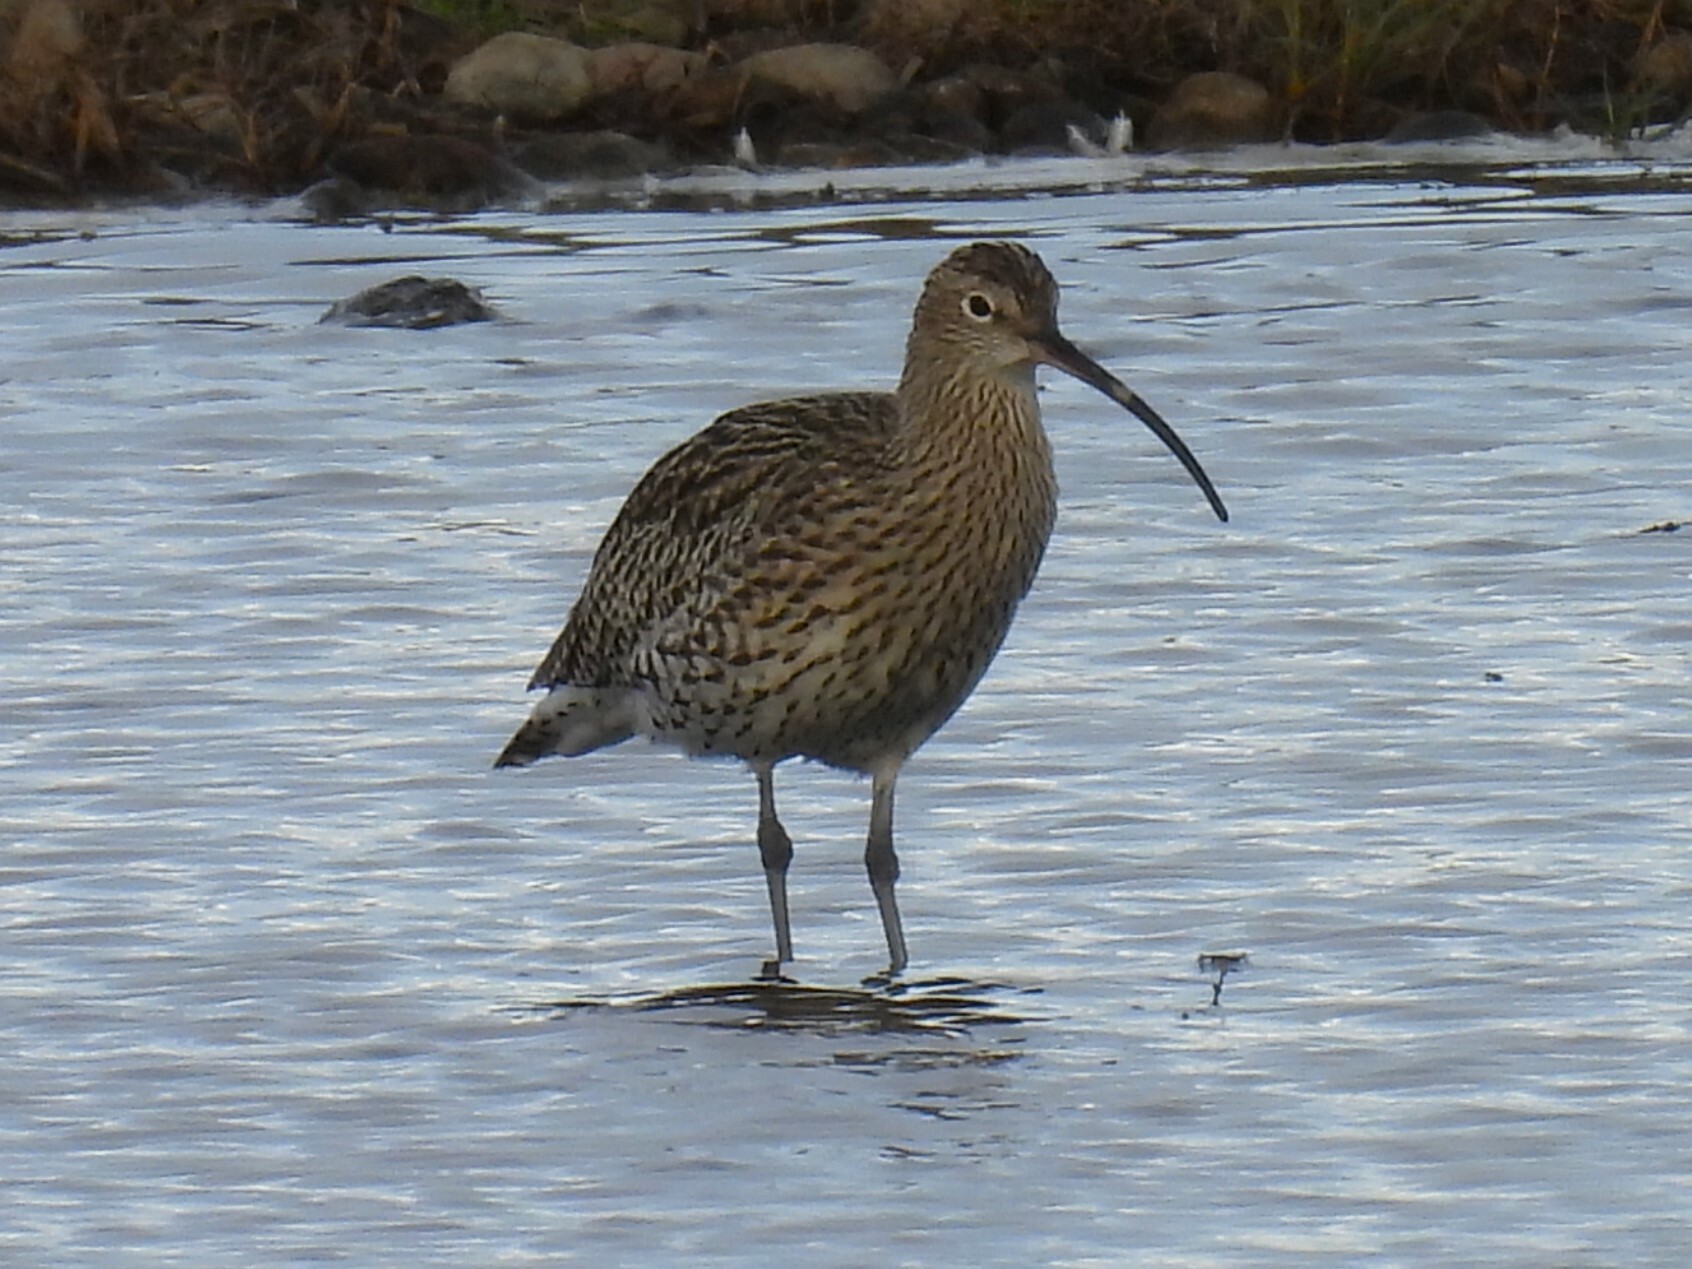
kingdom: Animalia
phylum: Chordata
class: Aves
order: Charadriiformes
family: Scolopacidae
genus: Numenius
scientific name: Numenius arquata
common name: Eurasian curlew
